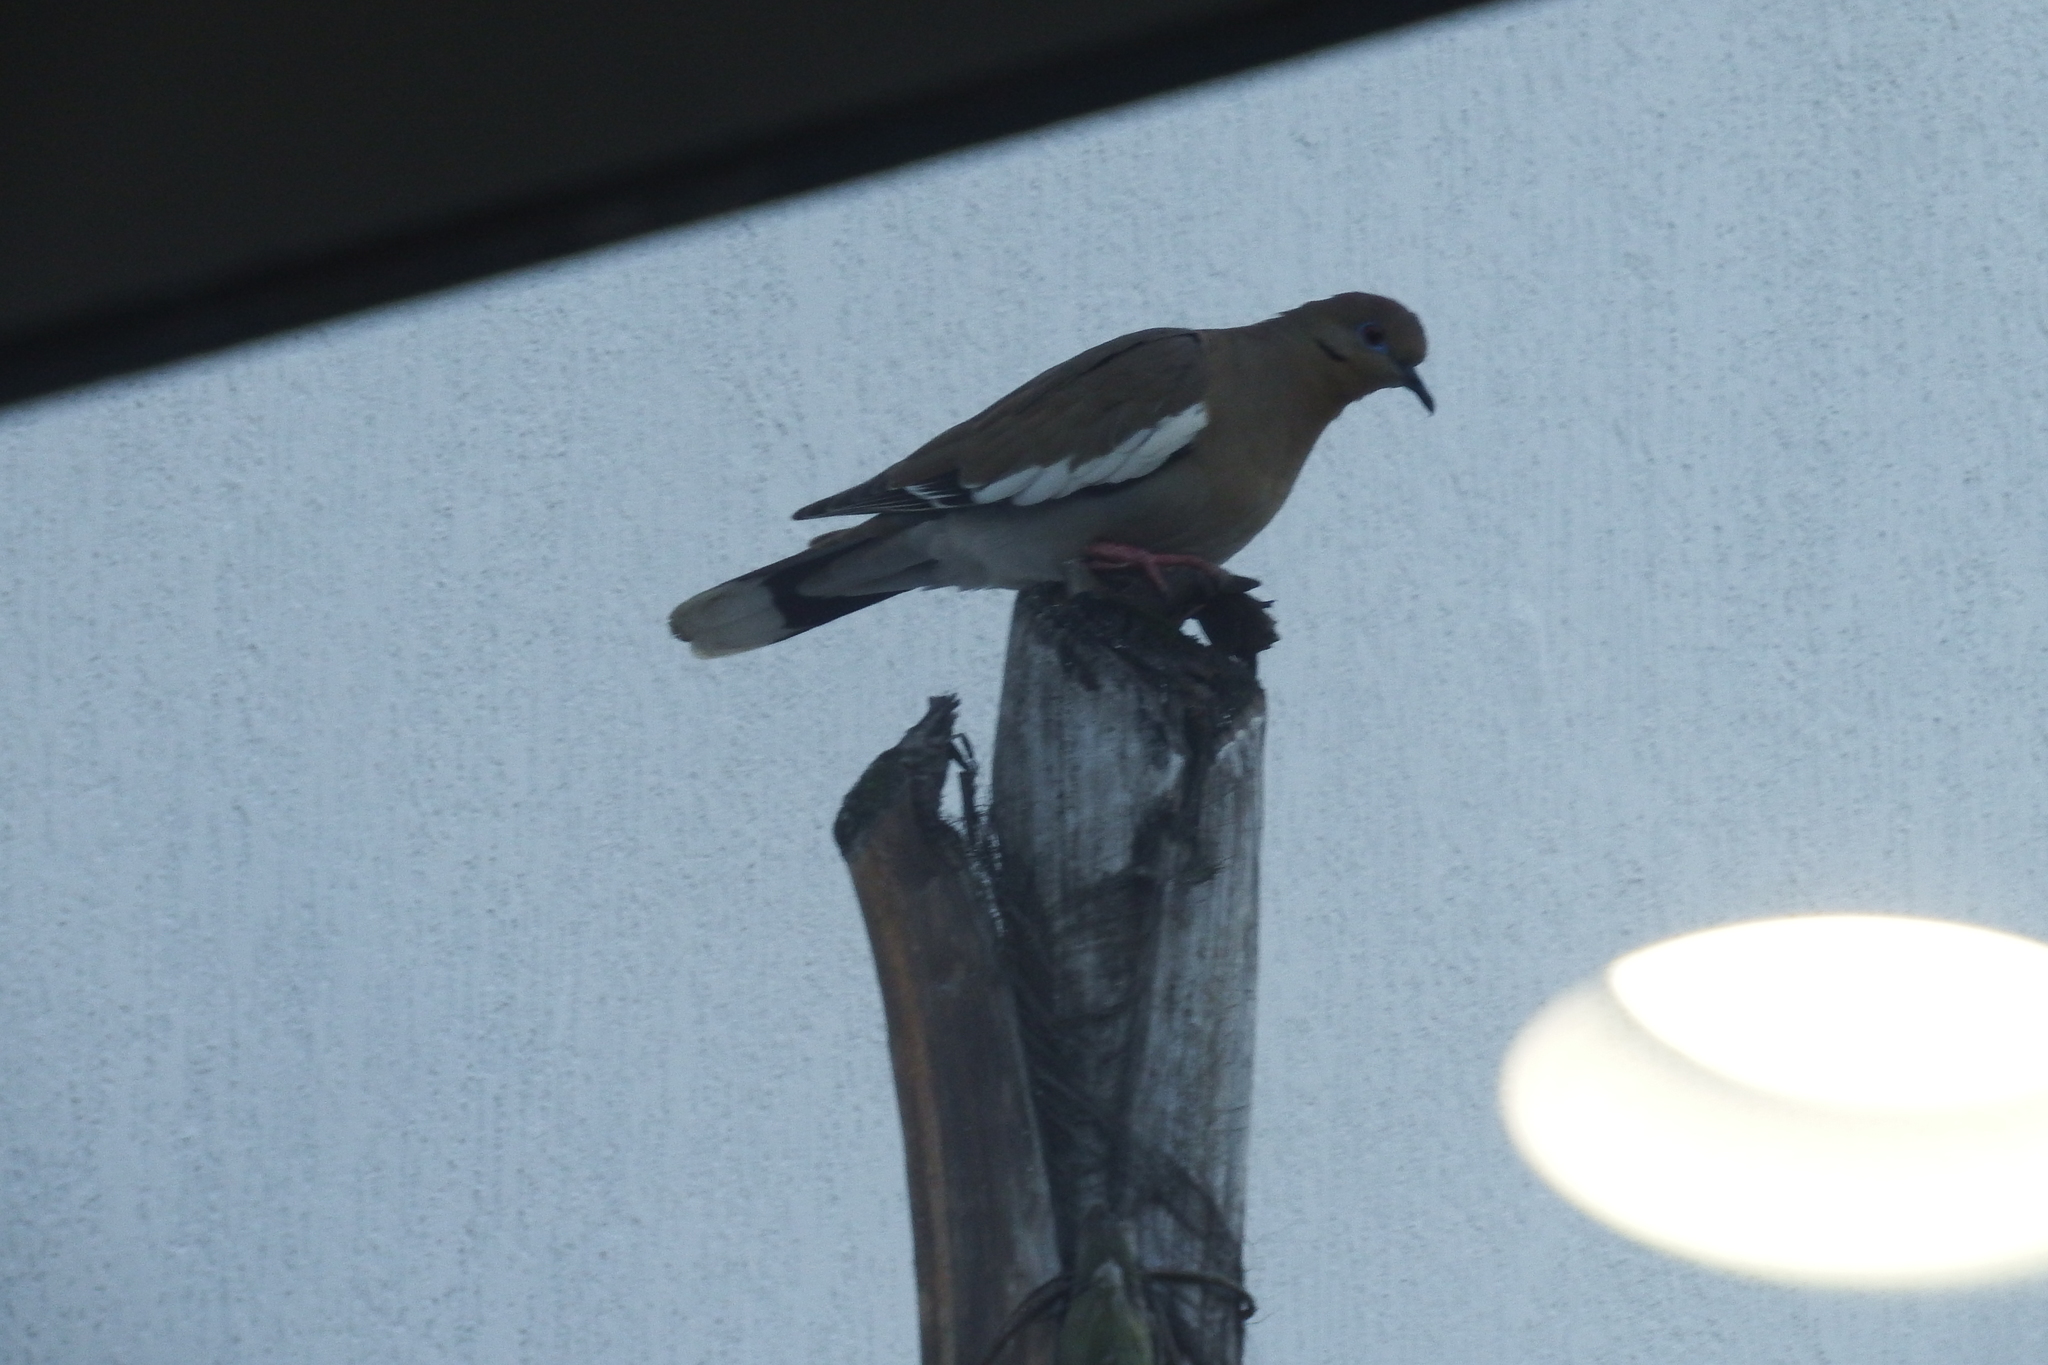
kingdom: Animalia
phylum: Chordata
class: Aves
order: Columbiformes
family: Columbidae
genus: Zenaida
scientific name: Zenaida asiatica
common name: White-winged dove
